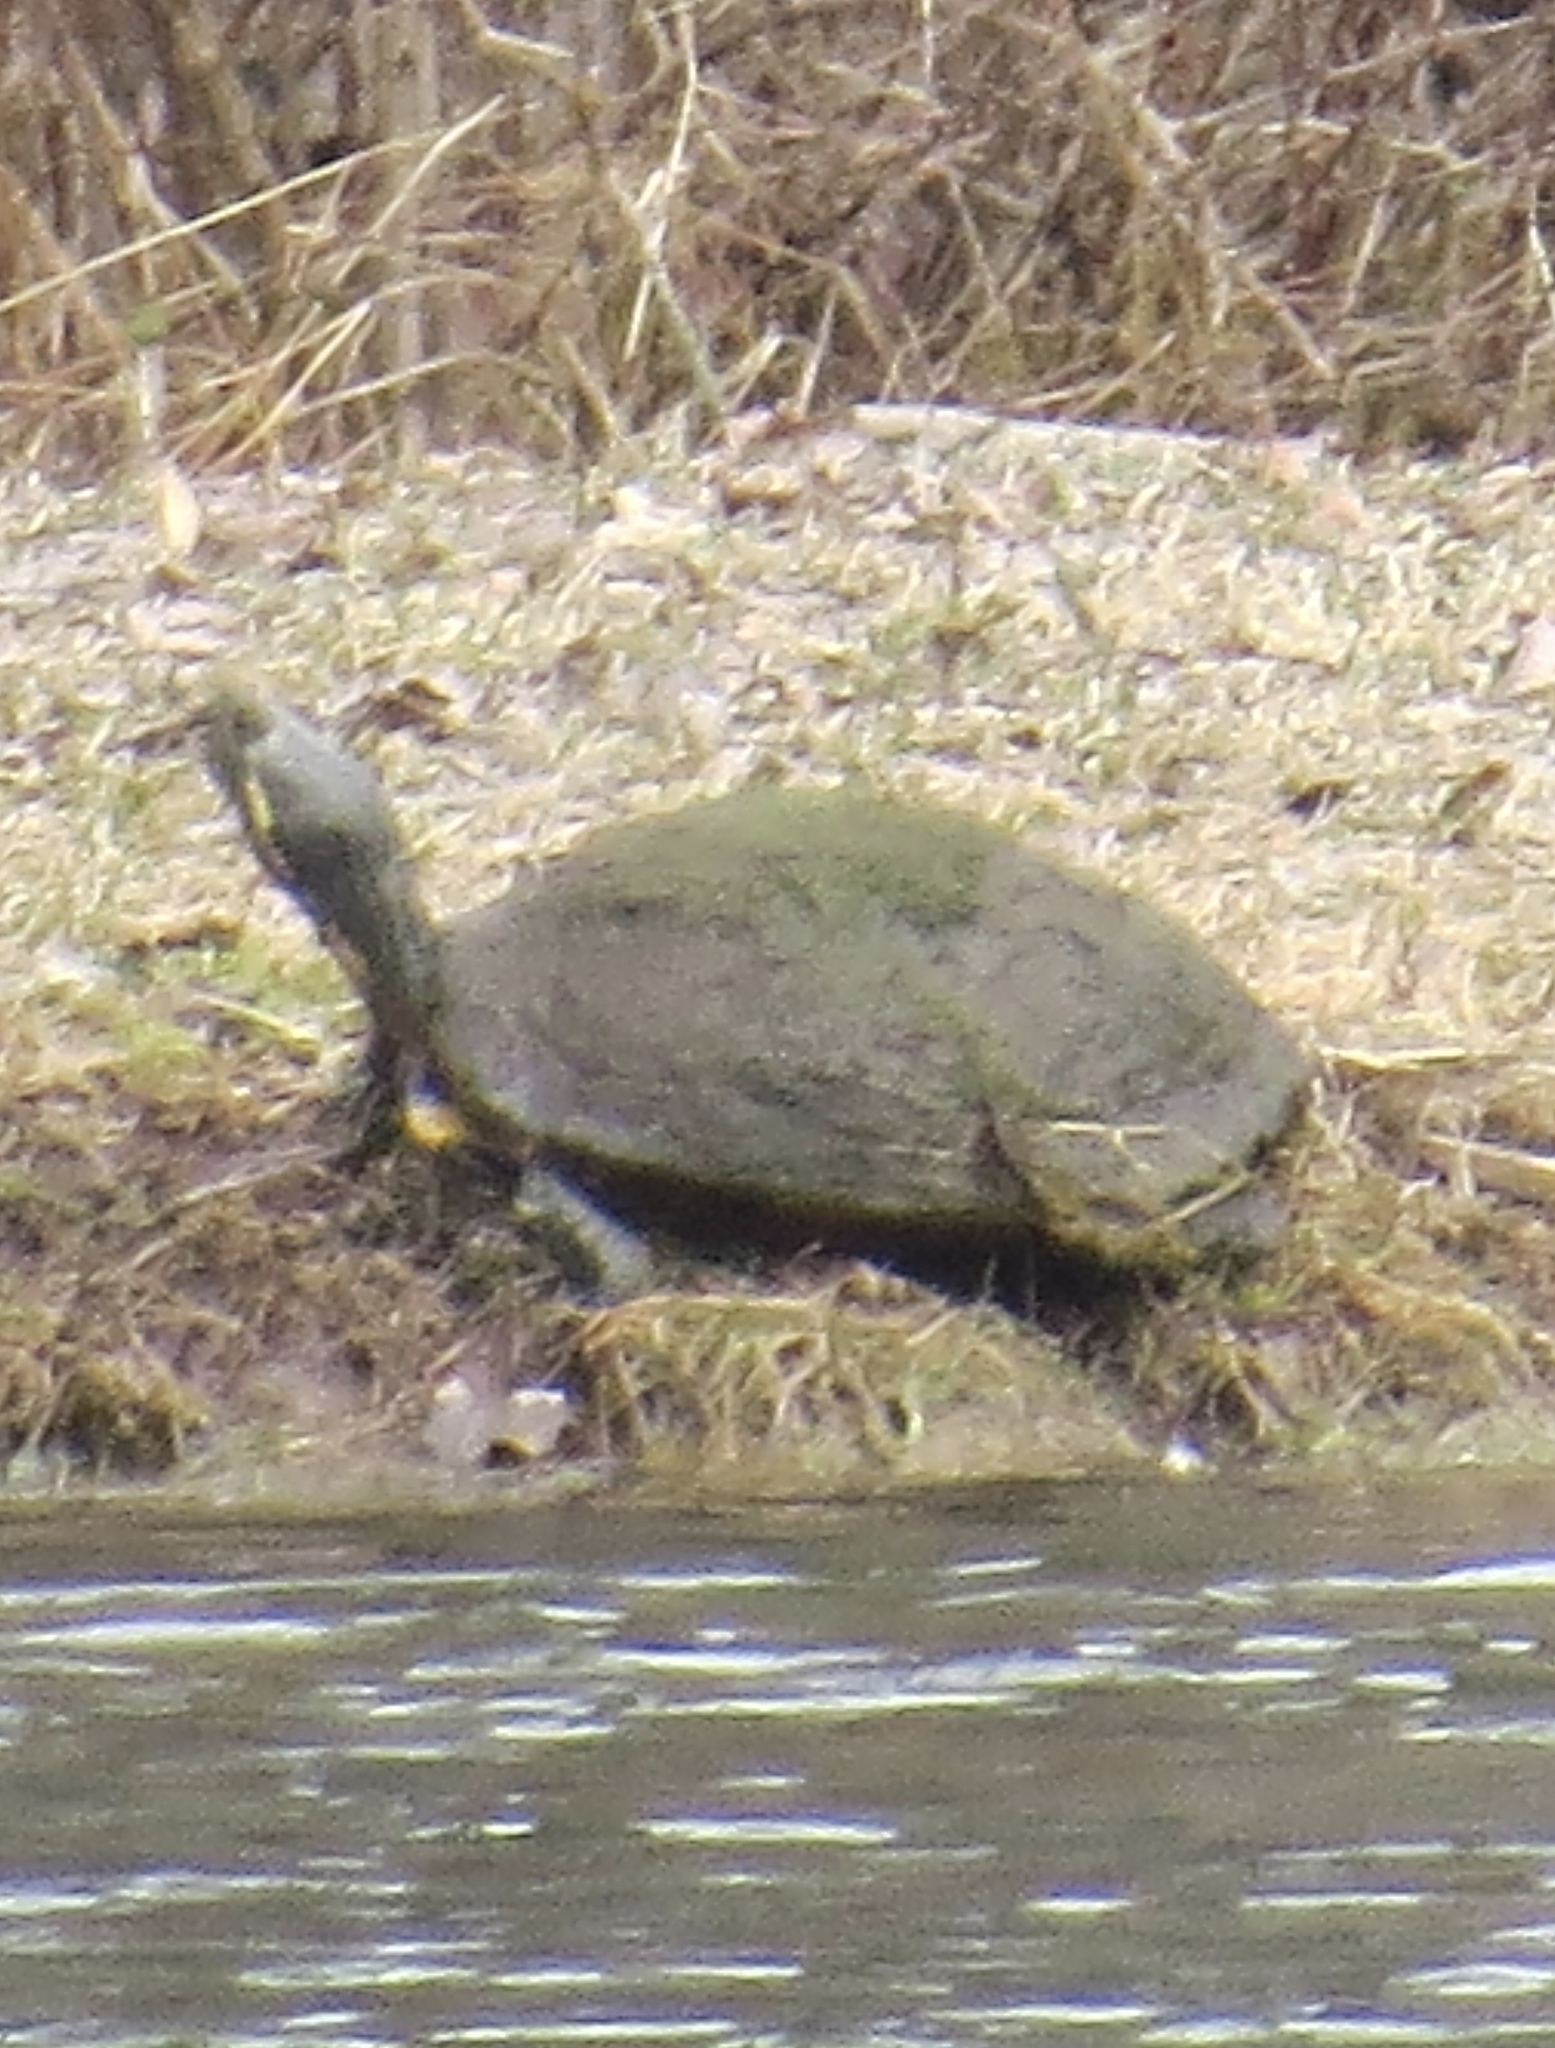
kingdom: Animalia
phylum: Chordata
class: Testudines
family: Emydidae
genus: Chrysemys
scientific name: Chrysemys picta
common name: Painted turtle
